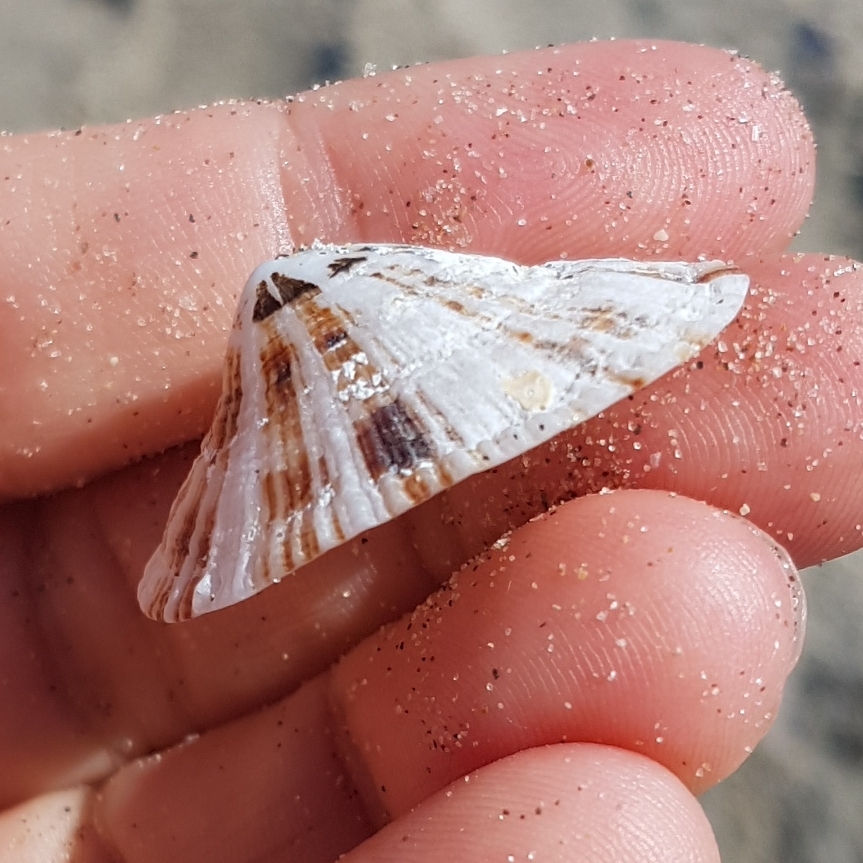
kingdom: Animalia
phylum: Mollusca
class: Gastropoda
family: Patellidae
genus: Patella
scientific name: Patella ulyssiponensis
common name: China limpet
